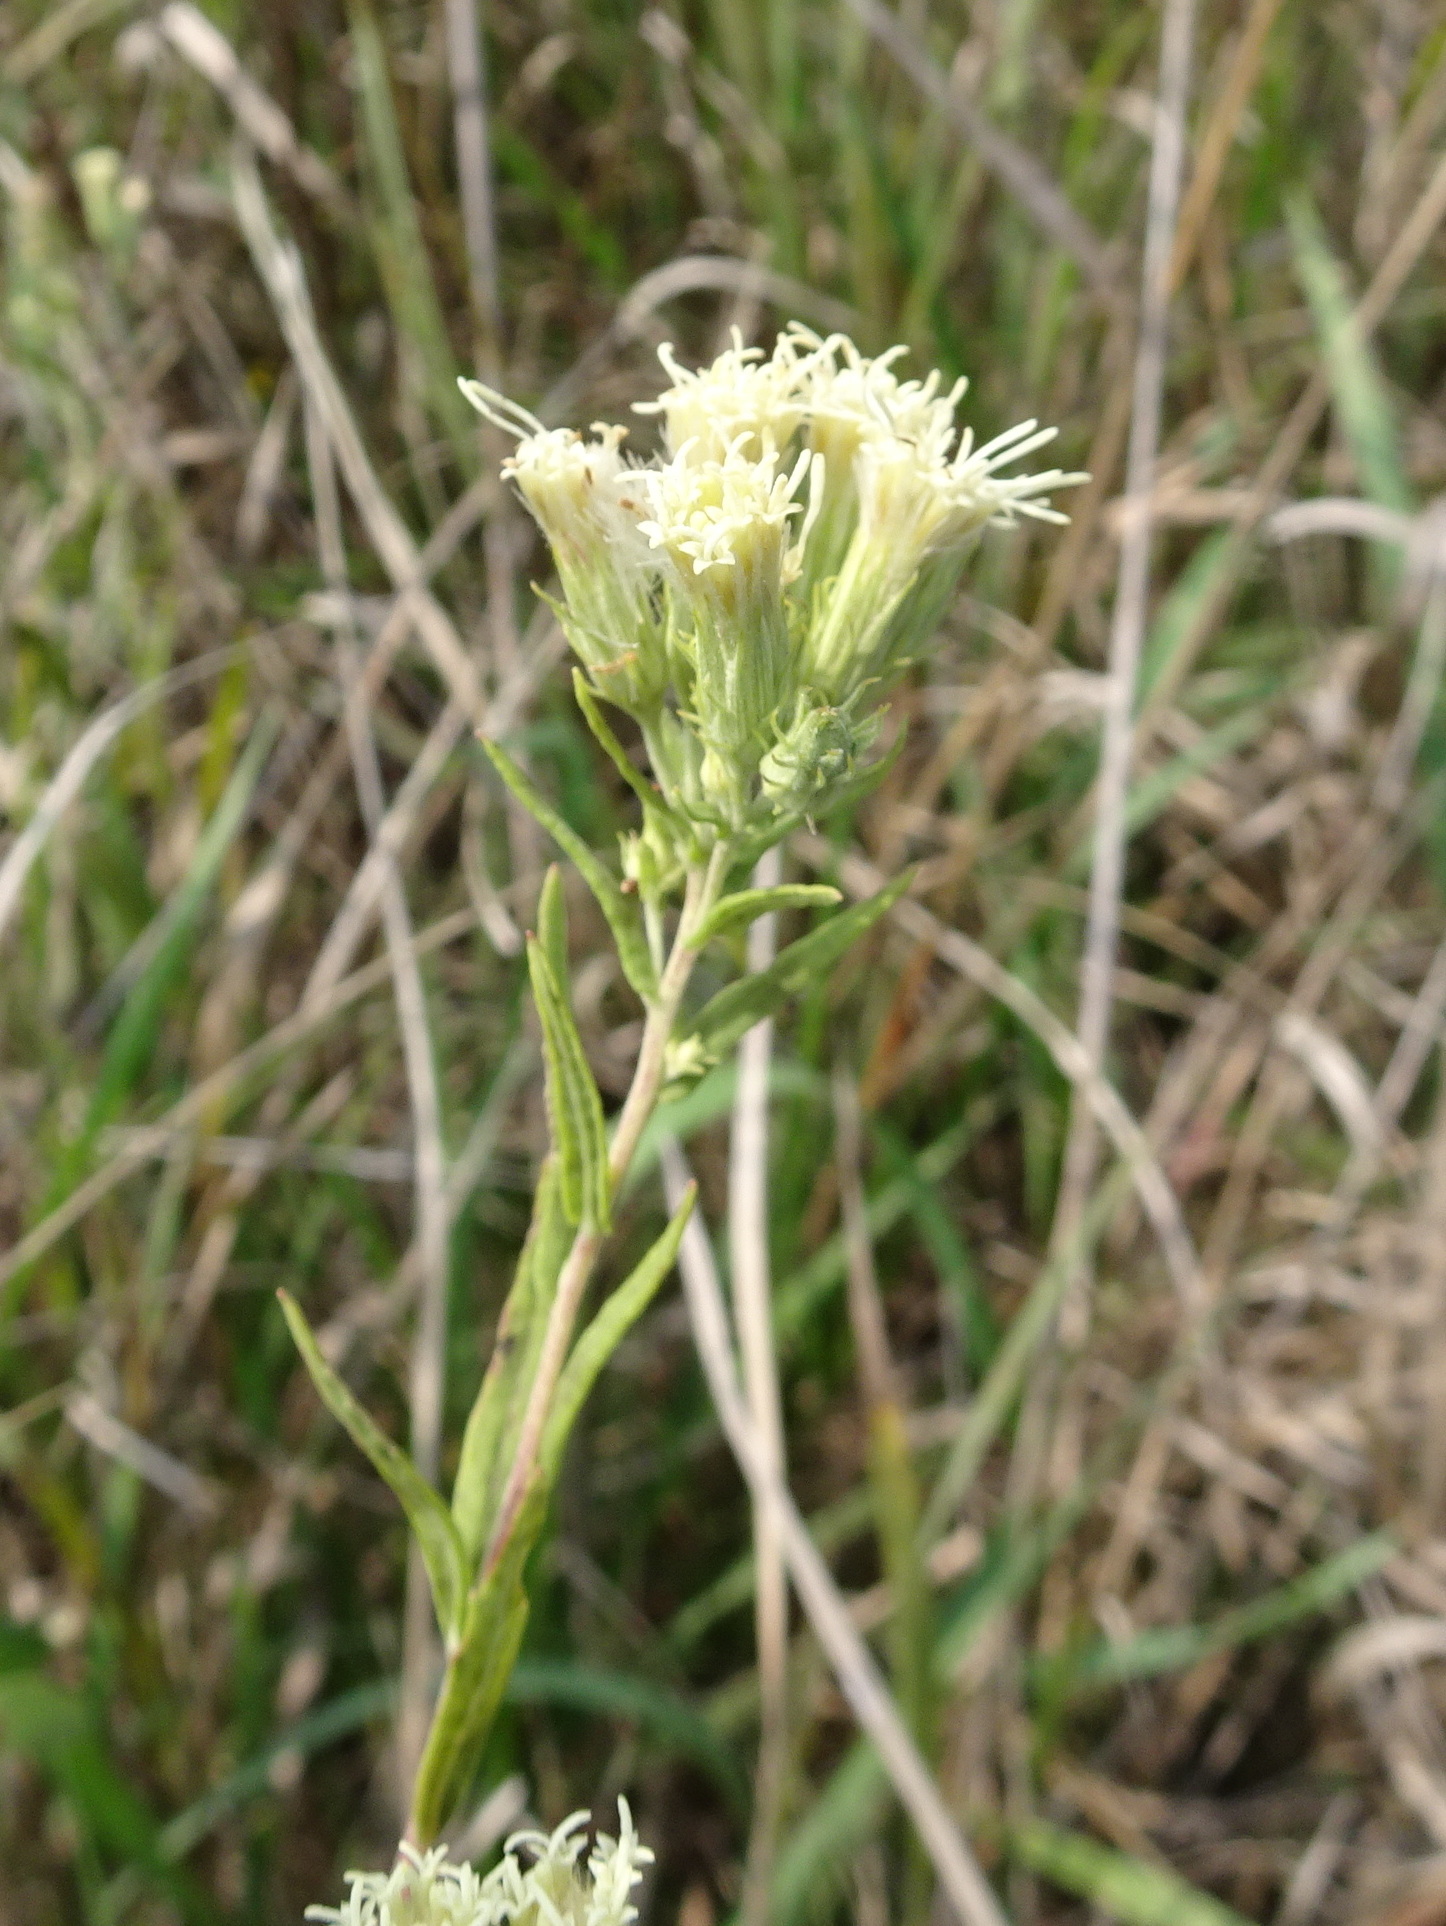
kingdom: Plantae
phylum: Tracheophyta
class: Magnoliopsida
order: Asterales
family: Asteraceae
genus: Brickellia
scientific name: Brickellia eupatorioides
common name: False boneset
